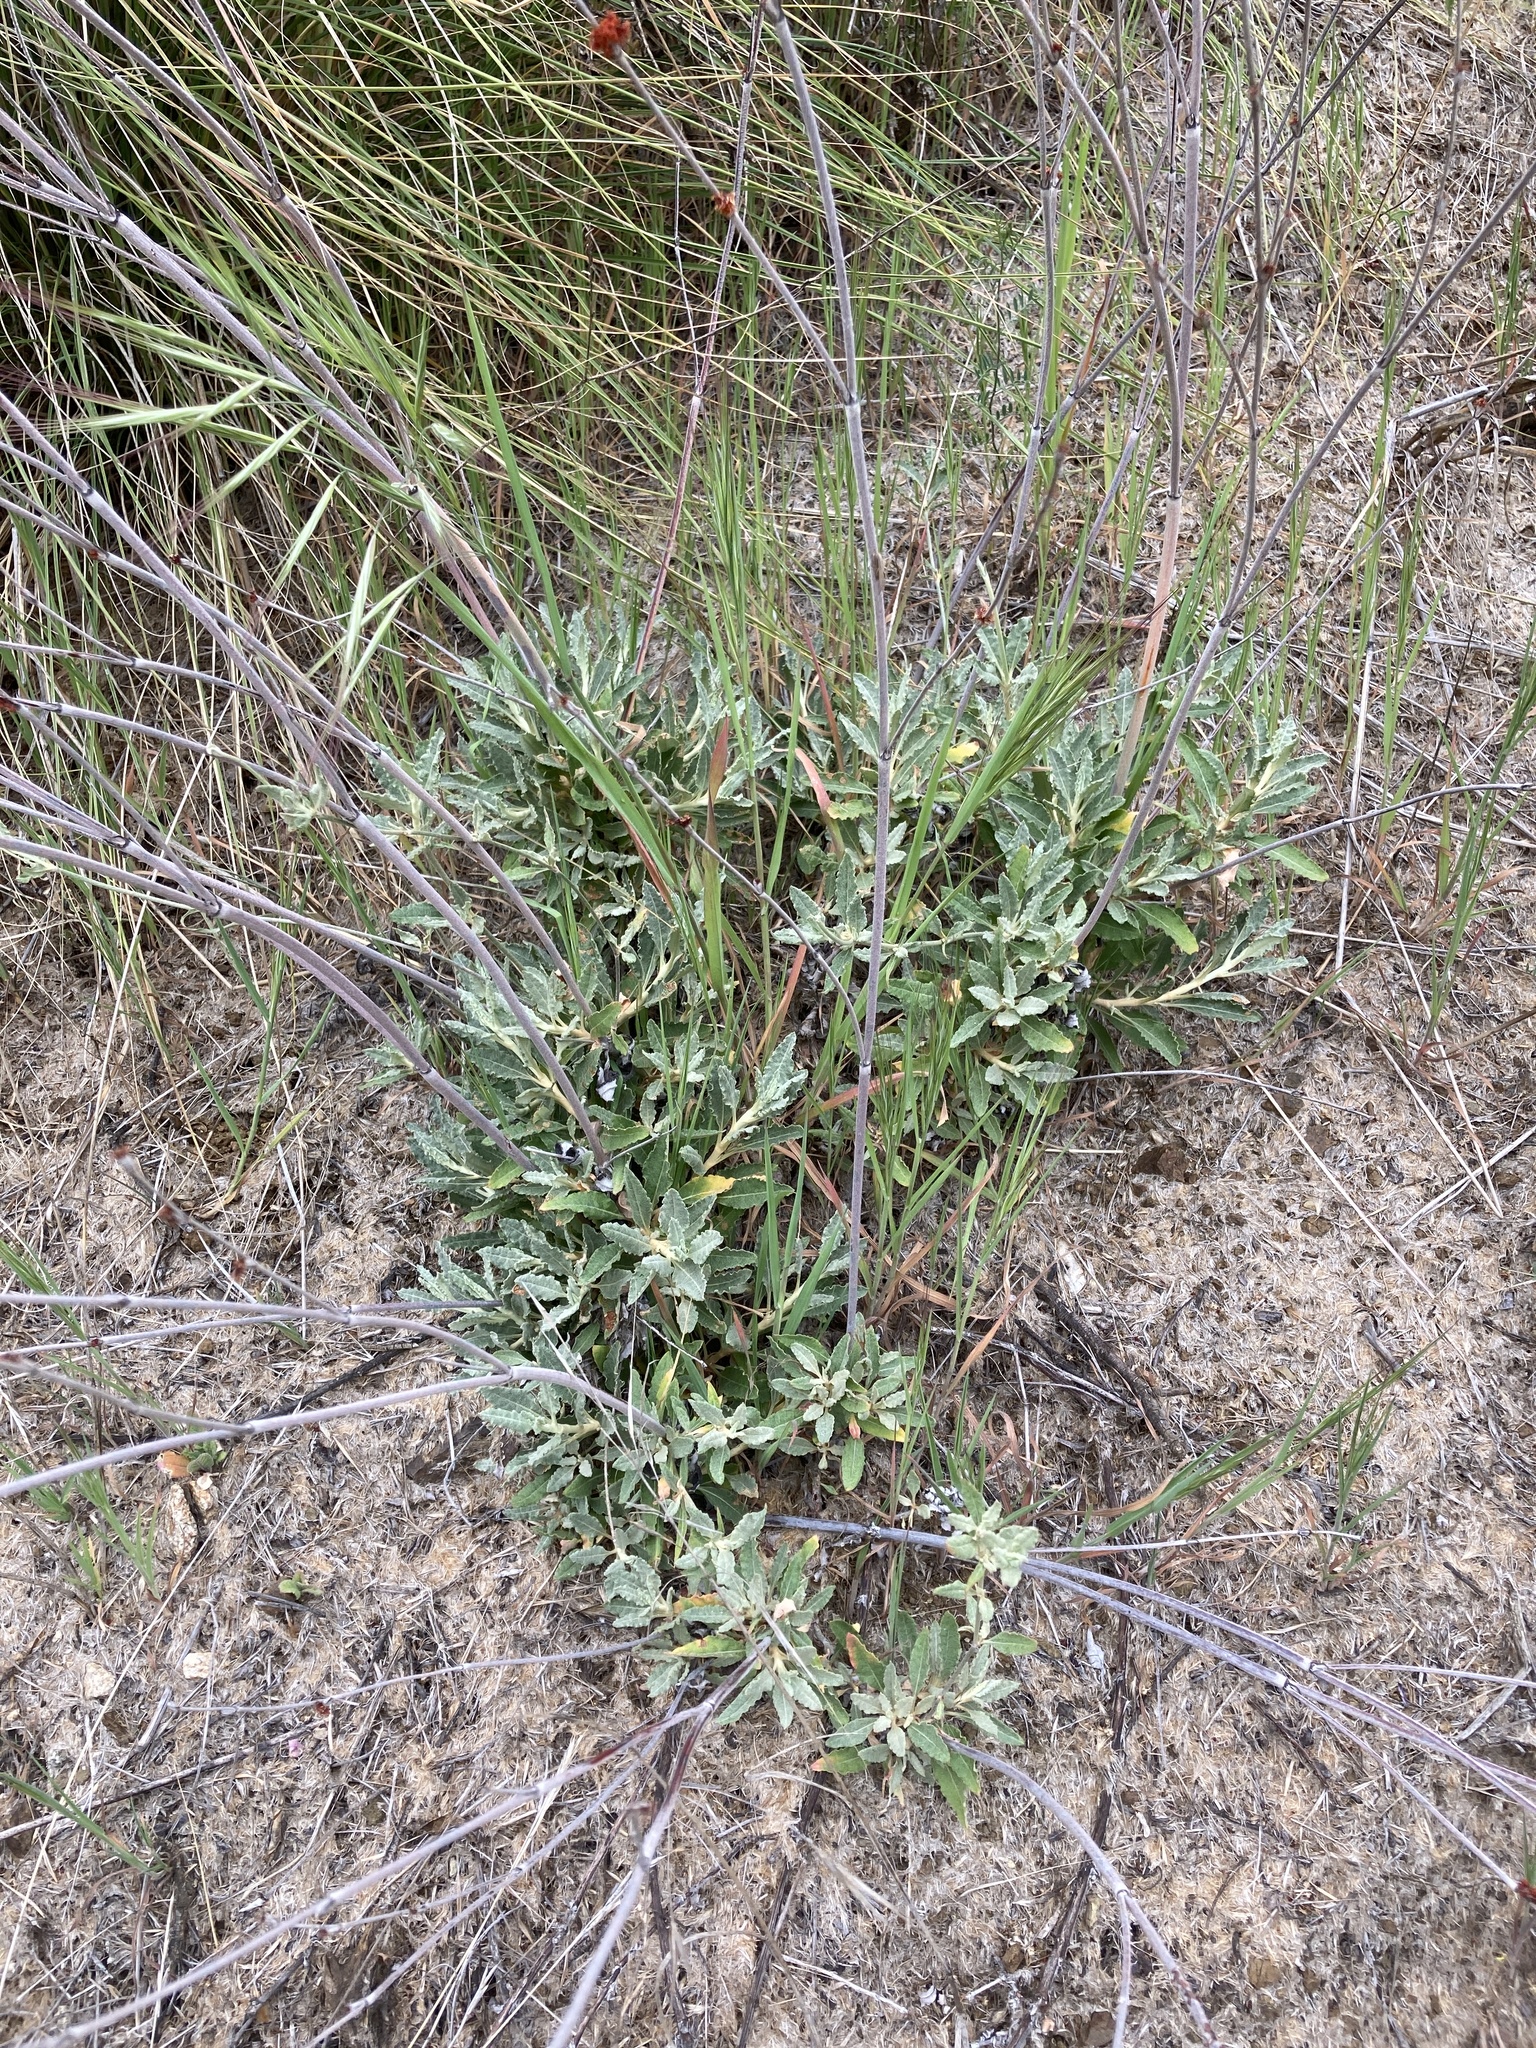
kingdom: Plantae
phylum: Tracheophyta
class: Magnoliopsida
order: Caryophyllales
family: Polygonaceae
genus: Eriogonum
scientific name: Eriogonum elongatum
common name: Long-stem wild buckwheat
